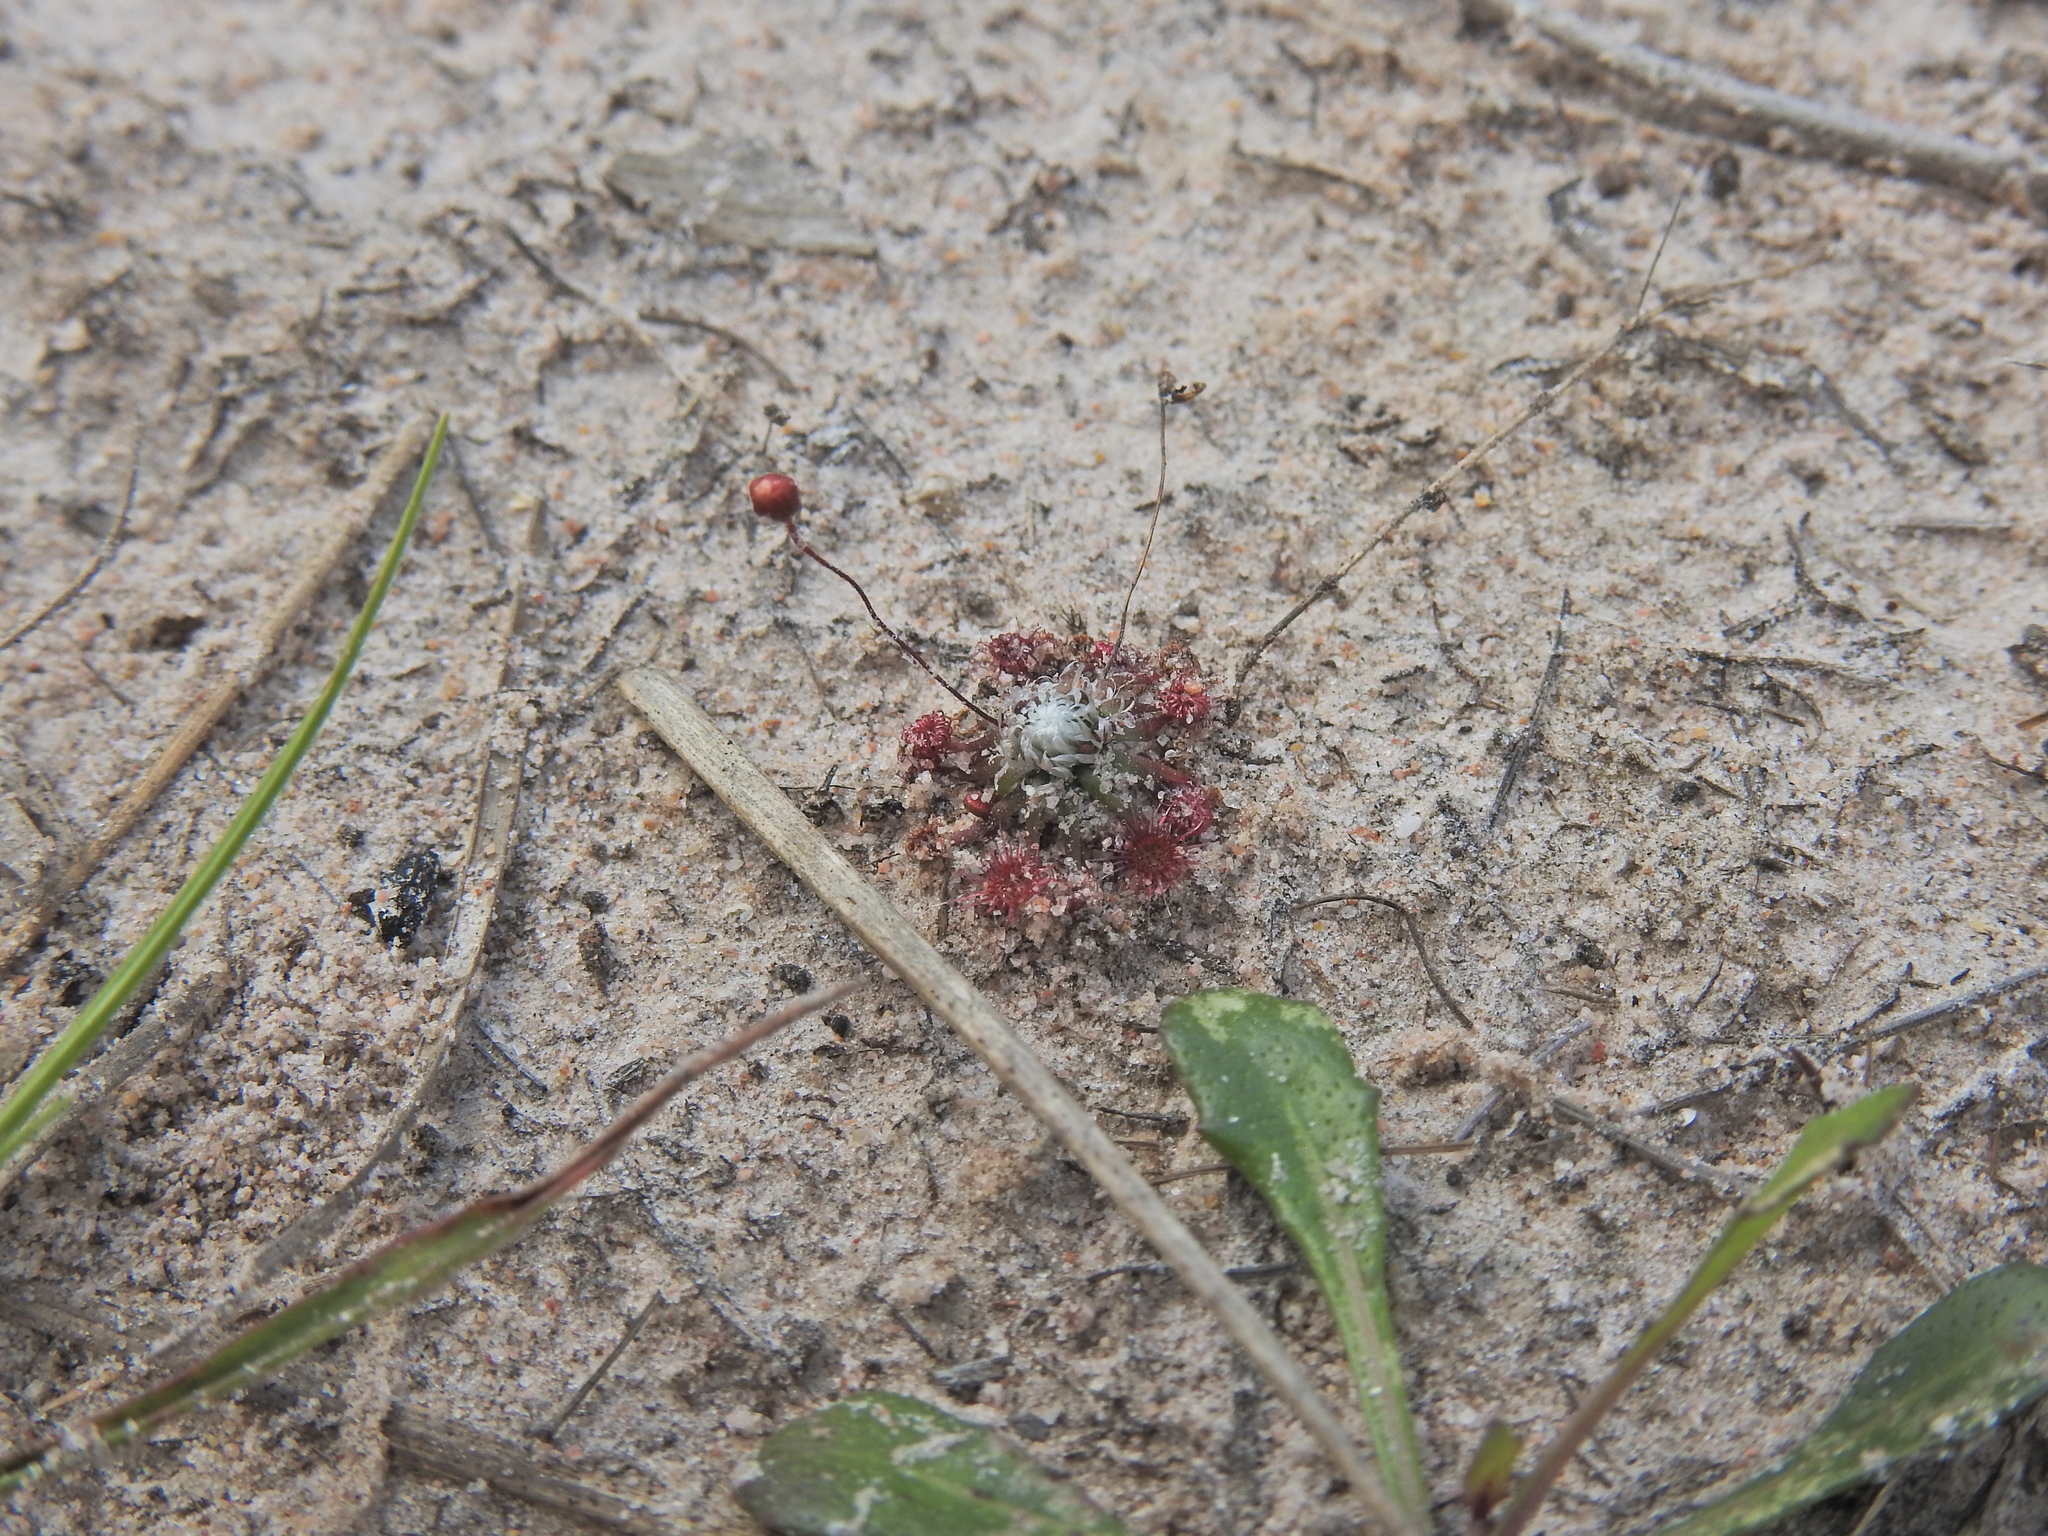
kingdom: Plantae
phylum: Tracheophyta
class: Magnoliopsida
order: Caryophyllales
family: Droseraceae
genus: Drosera
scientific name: Drosera pygmaea
